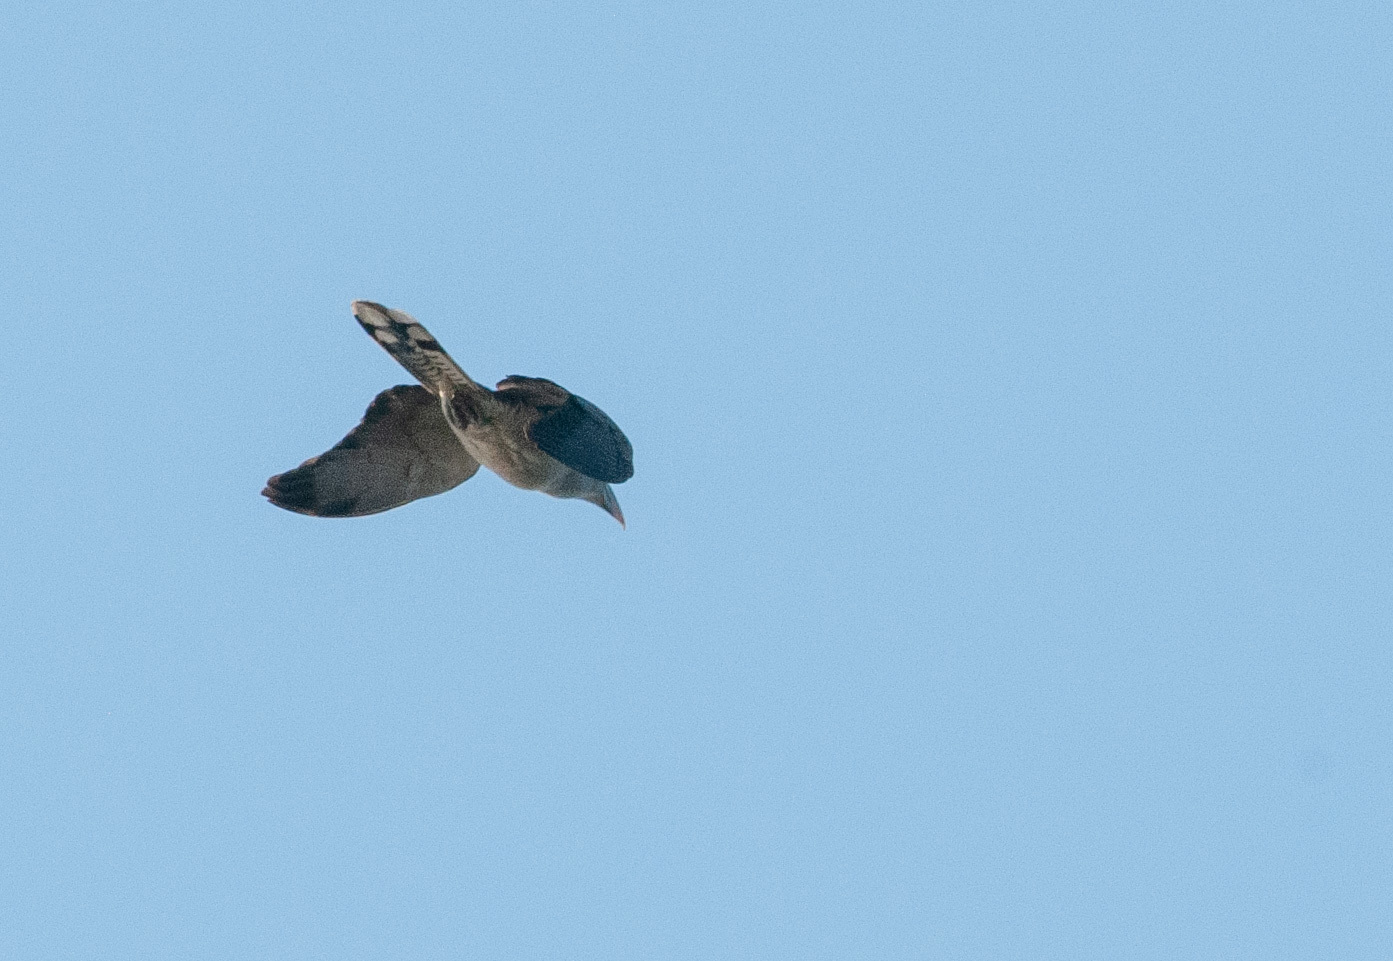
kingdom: Animalia
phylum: Chordata
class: Aves
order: Cuculiformes
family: Cuculidae
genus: Scythrops
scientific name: Scythrops novaehollandiae
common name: Channel-billed cuckoo
